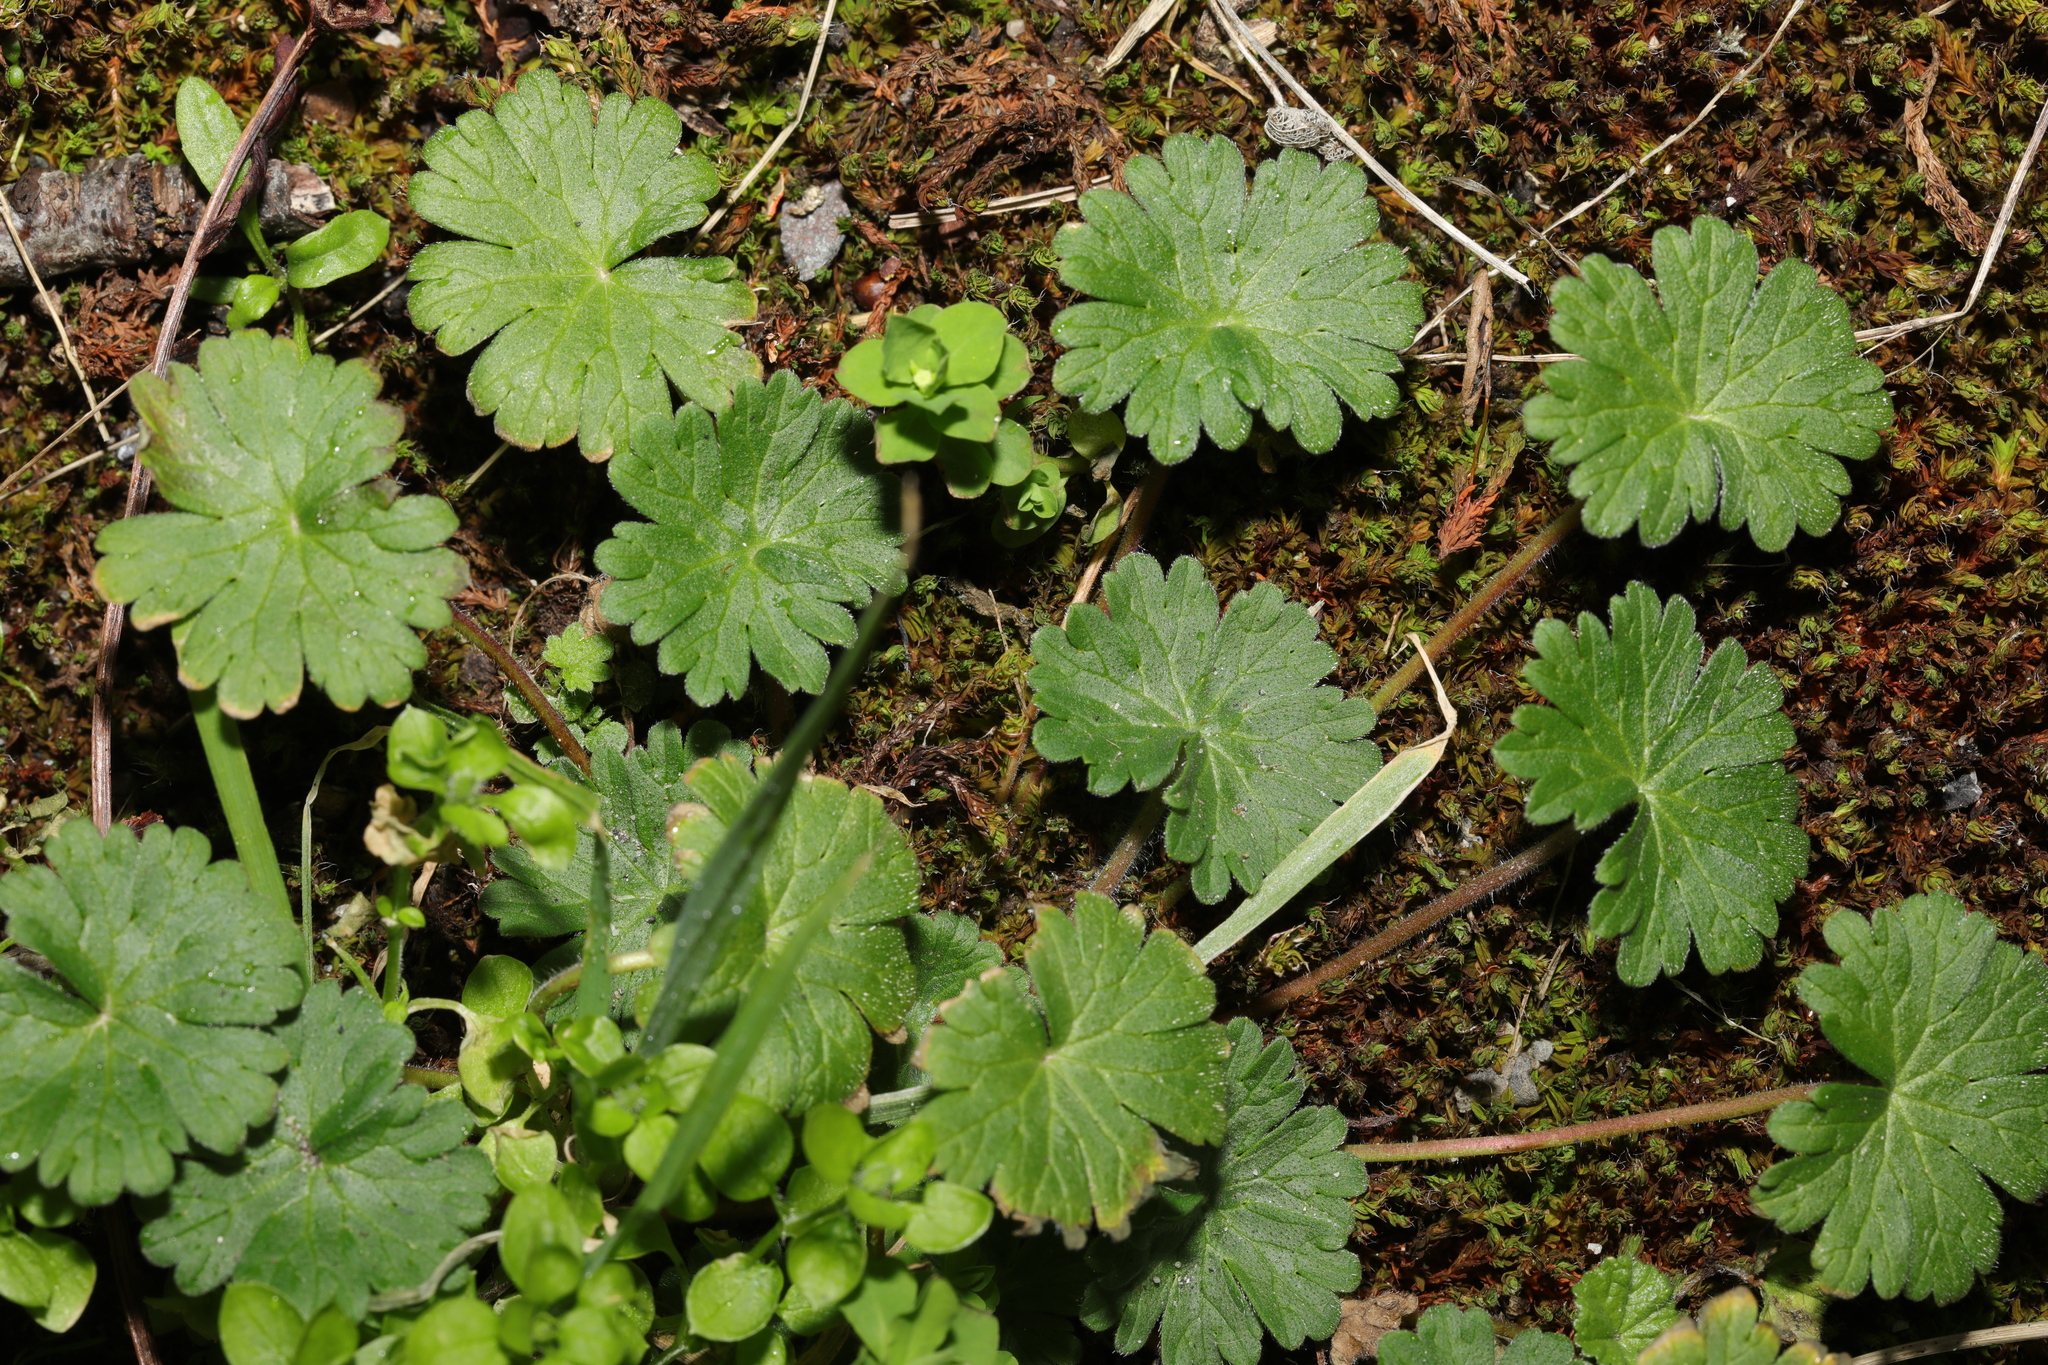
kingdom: Plantae
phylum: Tracheophyta
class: Magnoliopsida
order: Geraniales
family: Geraniaceae
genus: Geranium
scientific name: Geranium molle
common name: Dove's-foot crane's-bill
